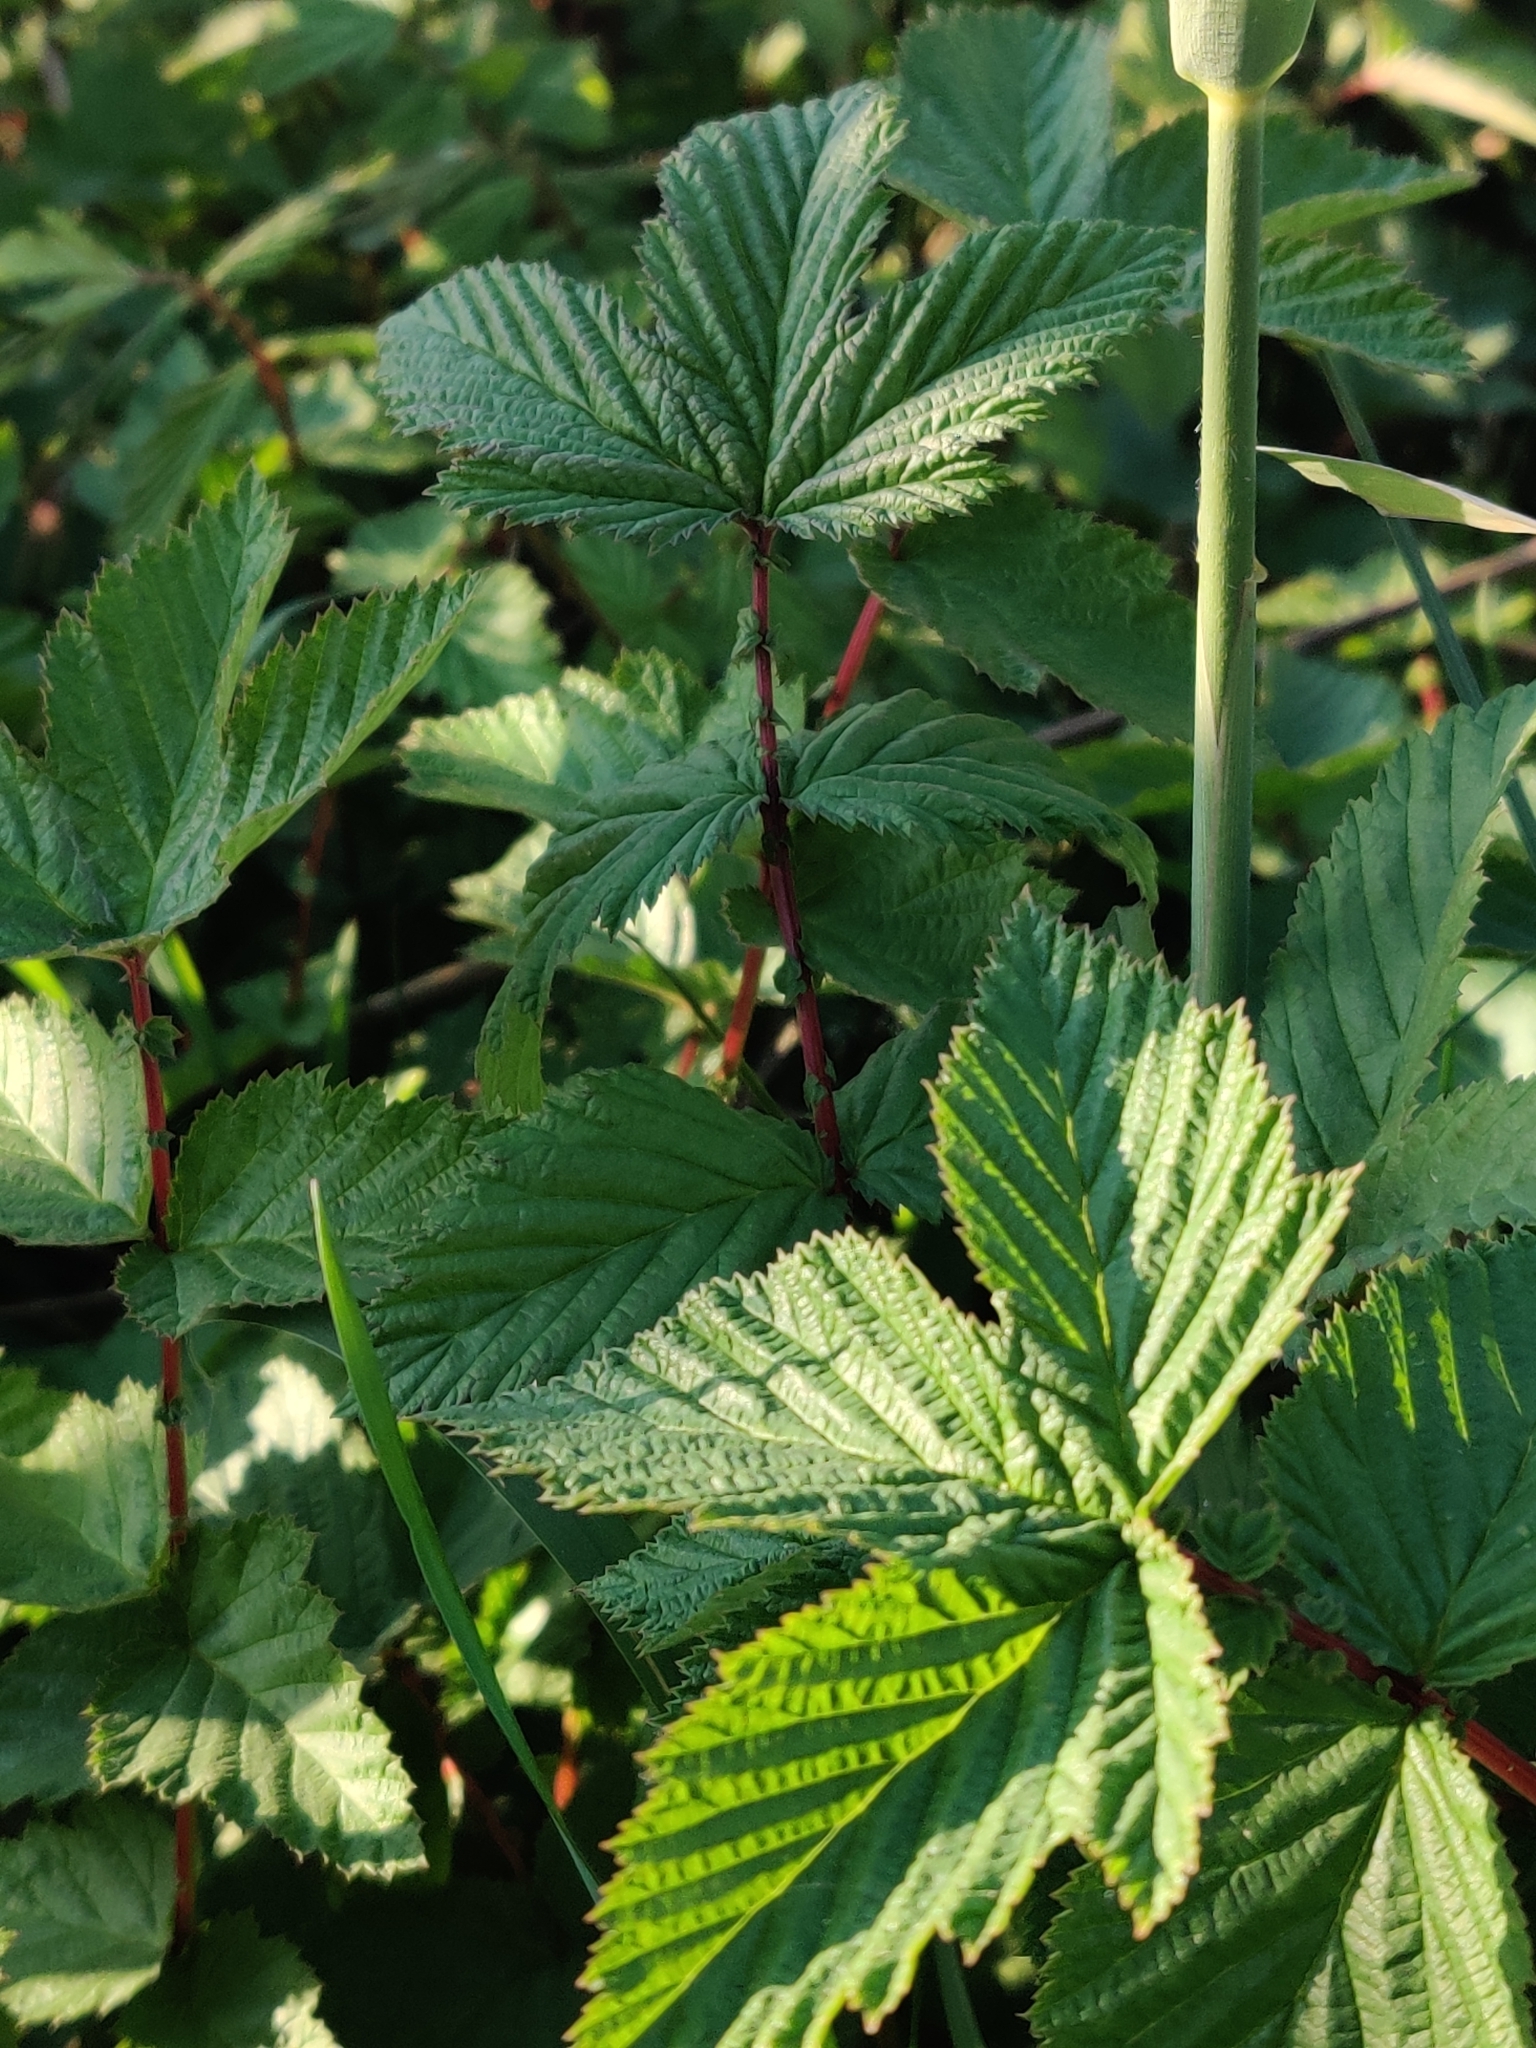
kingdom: Plantae
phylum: Tracheophyta
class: Magnoliopsida
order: Rosales
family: Rosaceae
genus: Filipendula
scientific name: Filipendula ulmaria
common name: Meadowsweet
